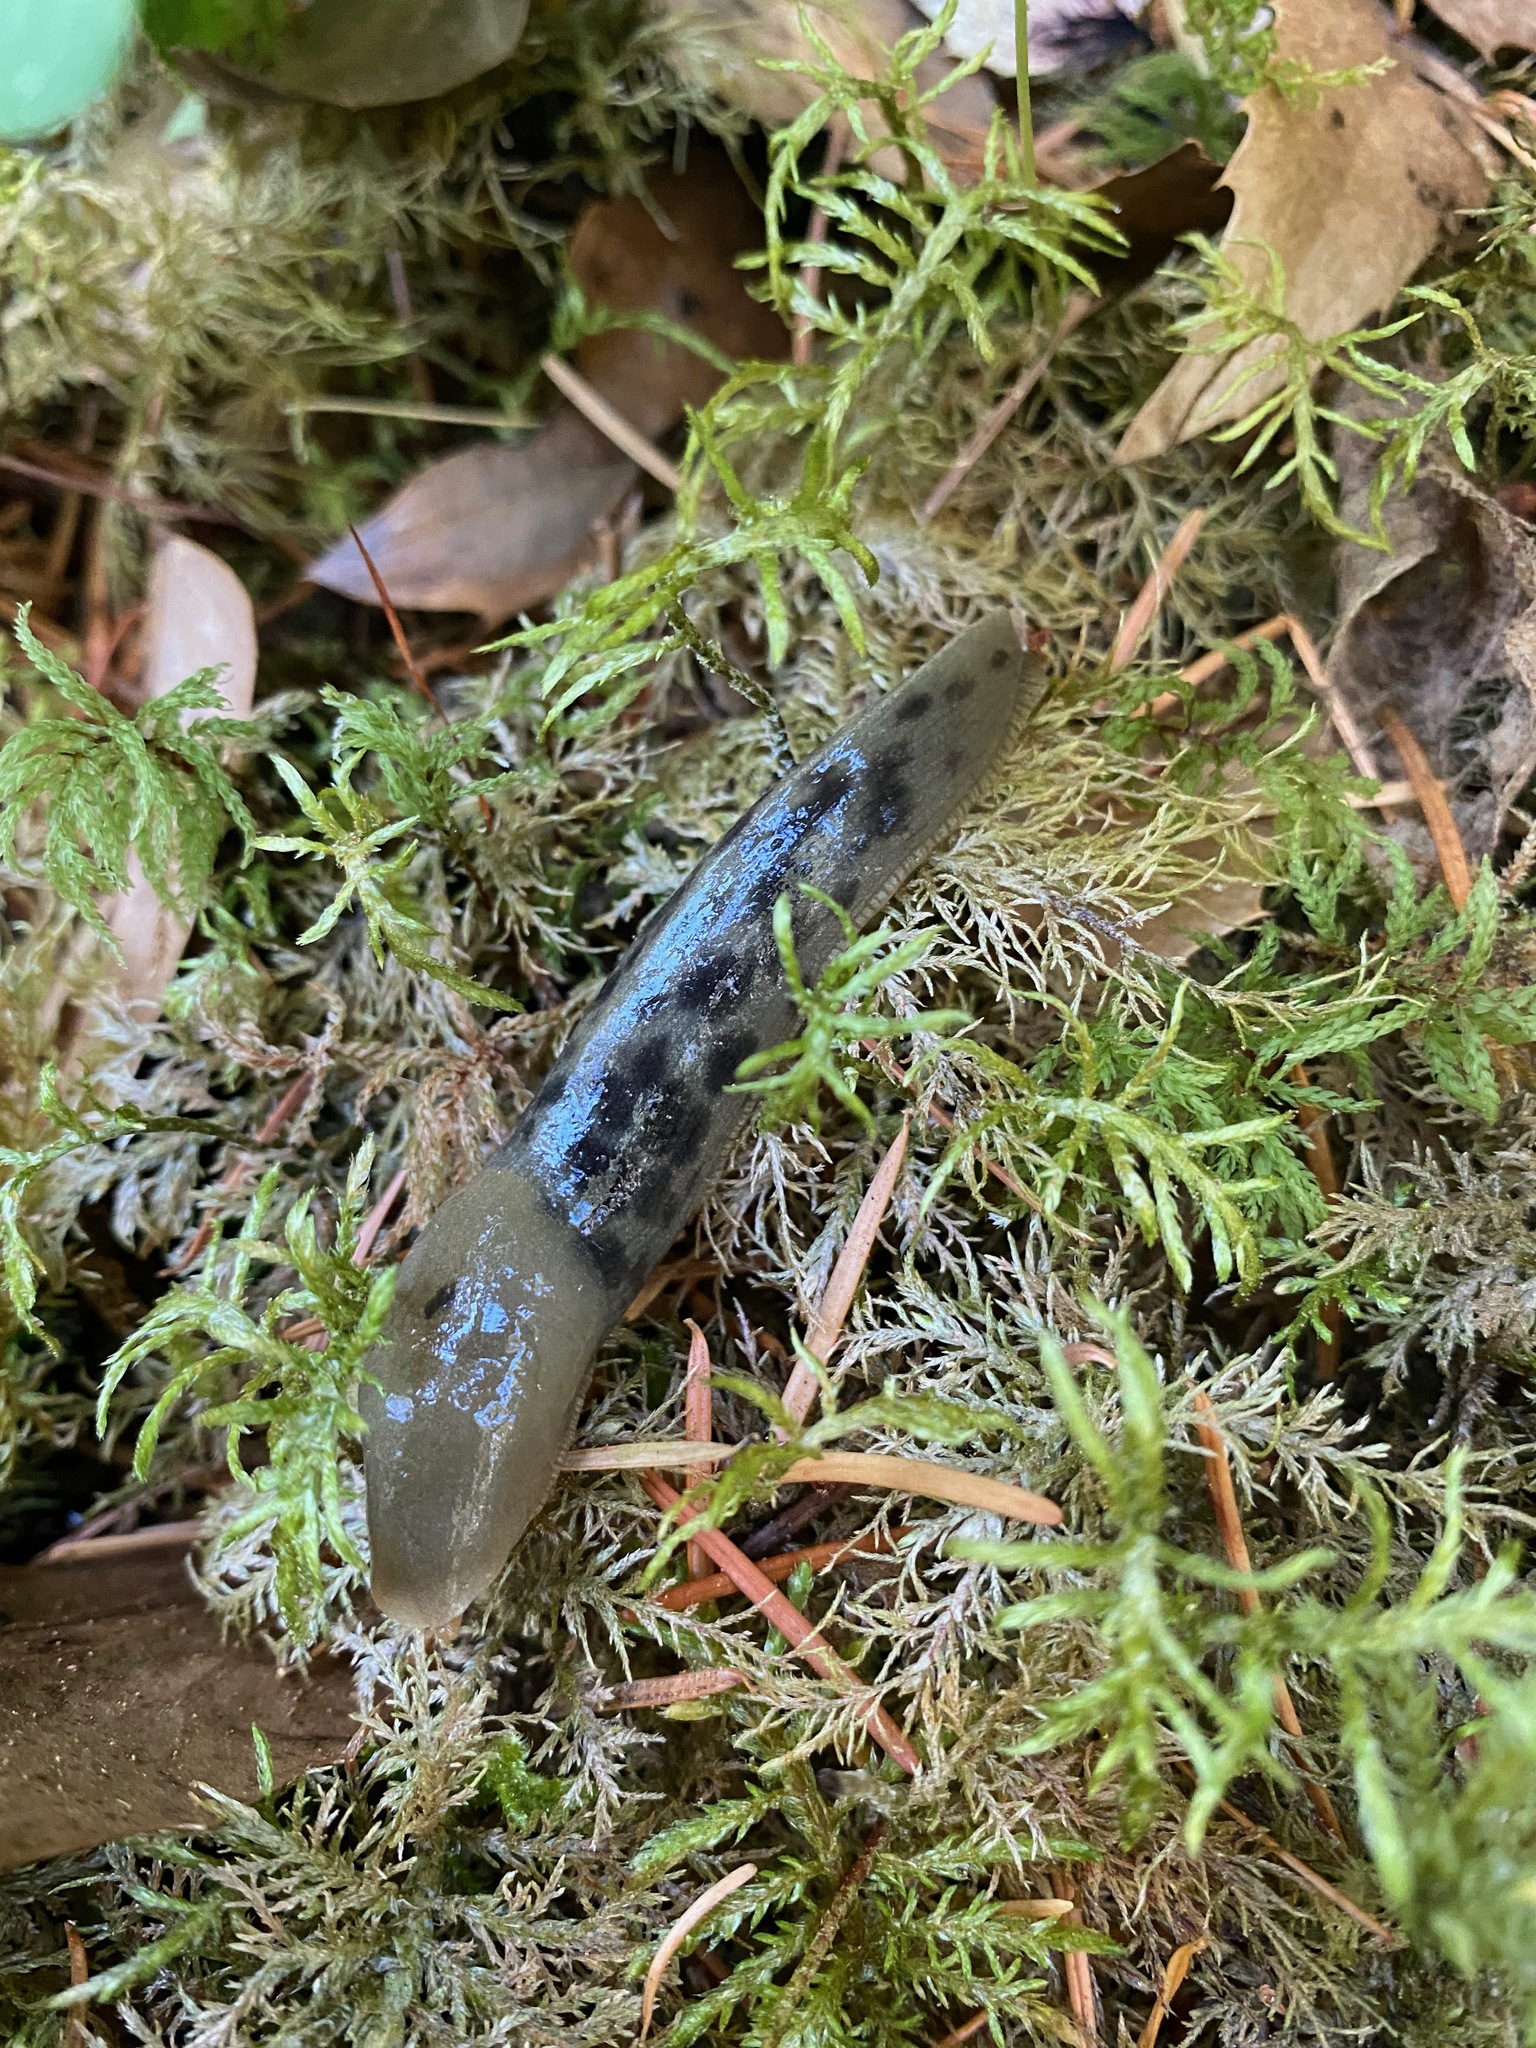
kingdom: Animalia
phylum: Mollusca
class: Gastropoda
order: Stylommatophora
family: Ariolimacidae
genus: Ariolimax
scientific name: Ariolimax columbianus
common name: Pacific banana slug
